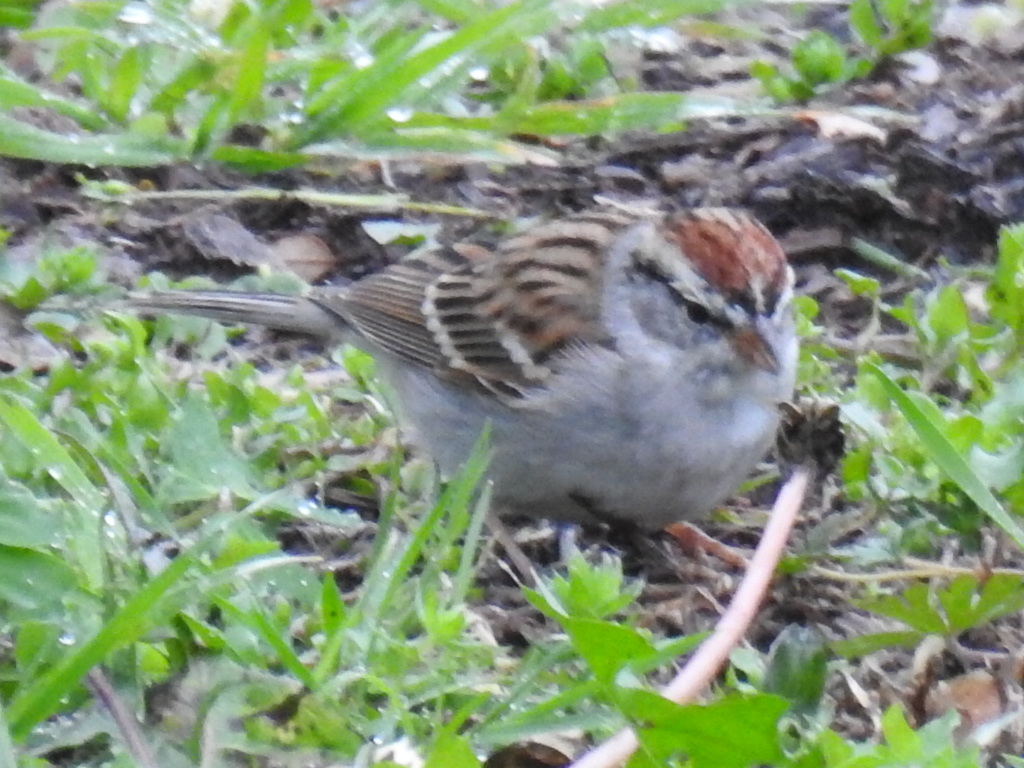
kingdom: Animalia
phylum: Chordata
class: Aves
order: Passeriformes
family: Passerellidae
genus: Spizella
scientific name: Spizella passerina
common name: Chipping sparrow
